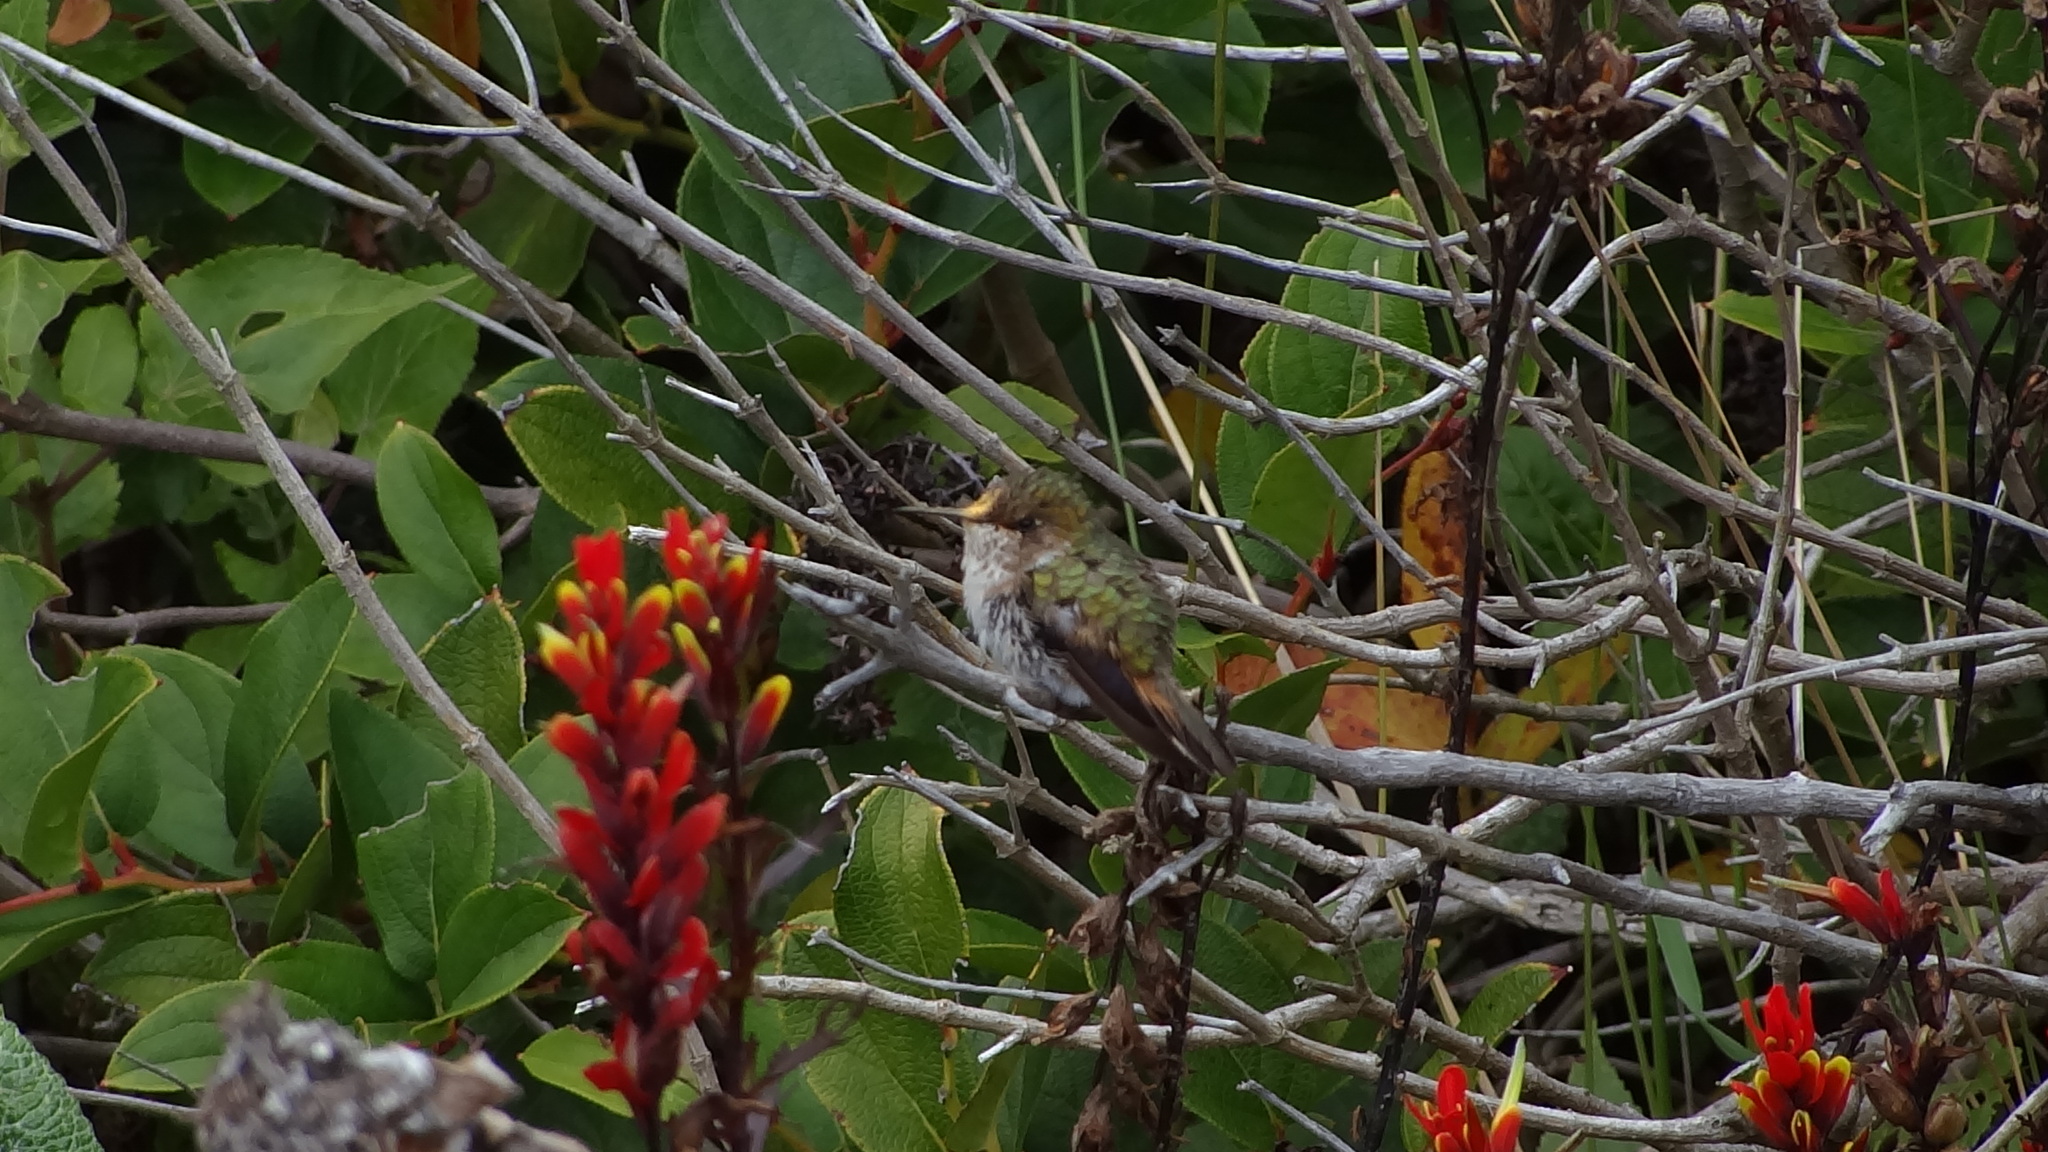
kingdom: Animalia
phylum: Chordata
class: Aves
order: Apodiformes
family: Trochilidae
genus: Selasphorus
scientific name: Selasphorus flammula
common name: Volcano hummingbird
